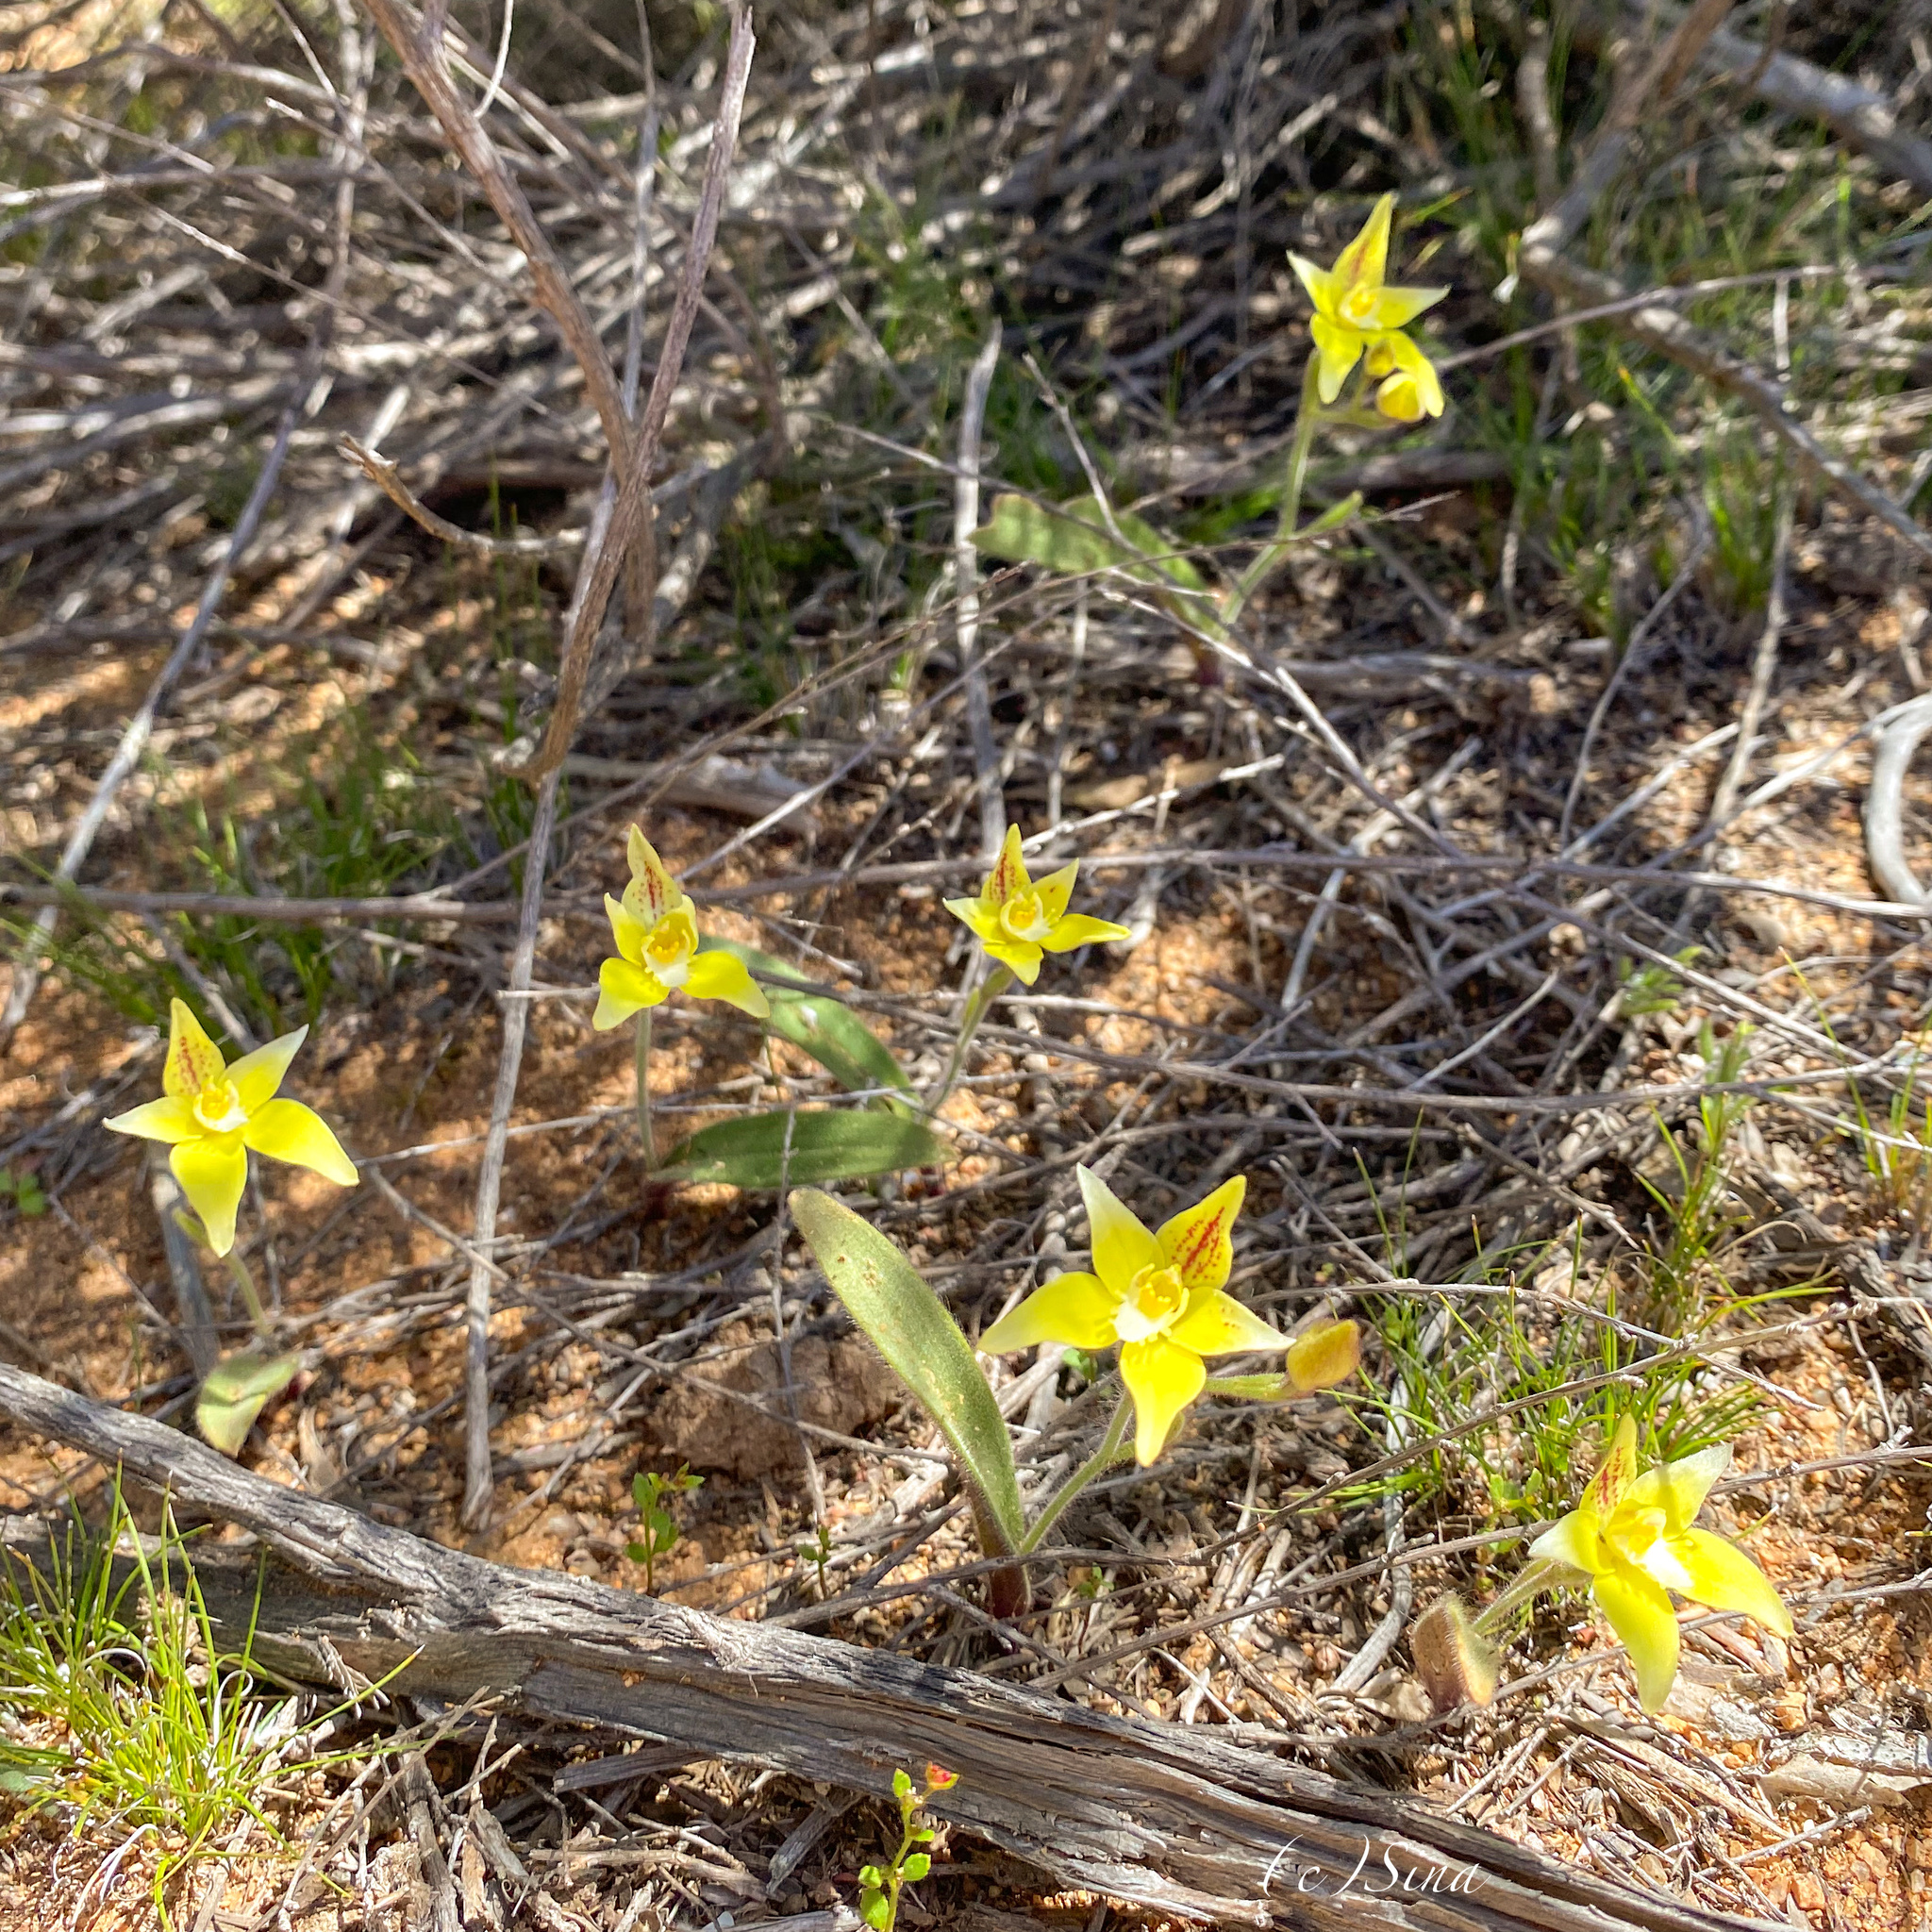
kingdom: Plantae
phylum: Tracheophyta
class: Liliopsida
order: Asparagales
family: Orchidaceae
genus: Caladenia
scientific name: Caladenia flava
